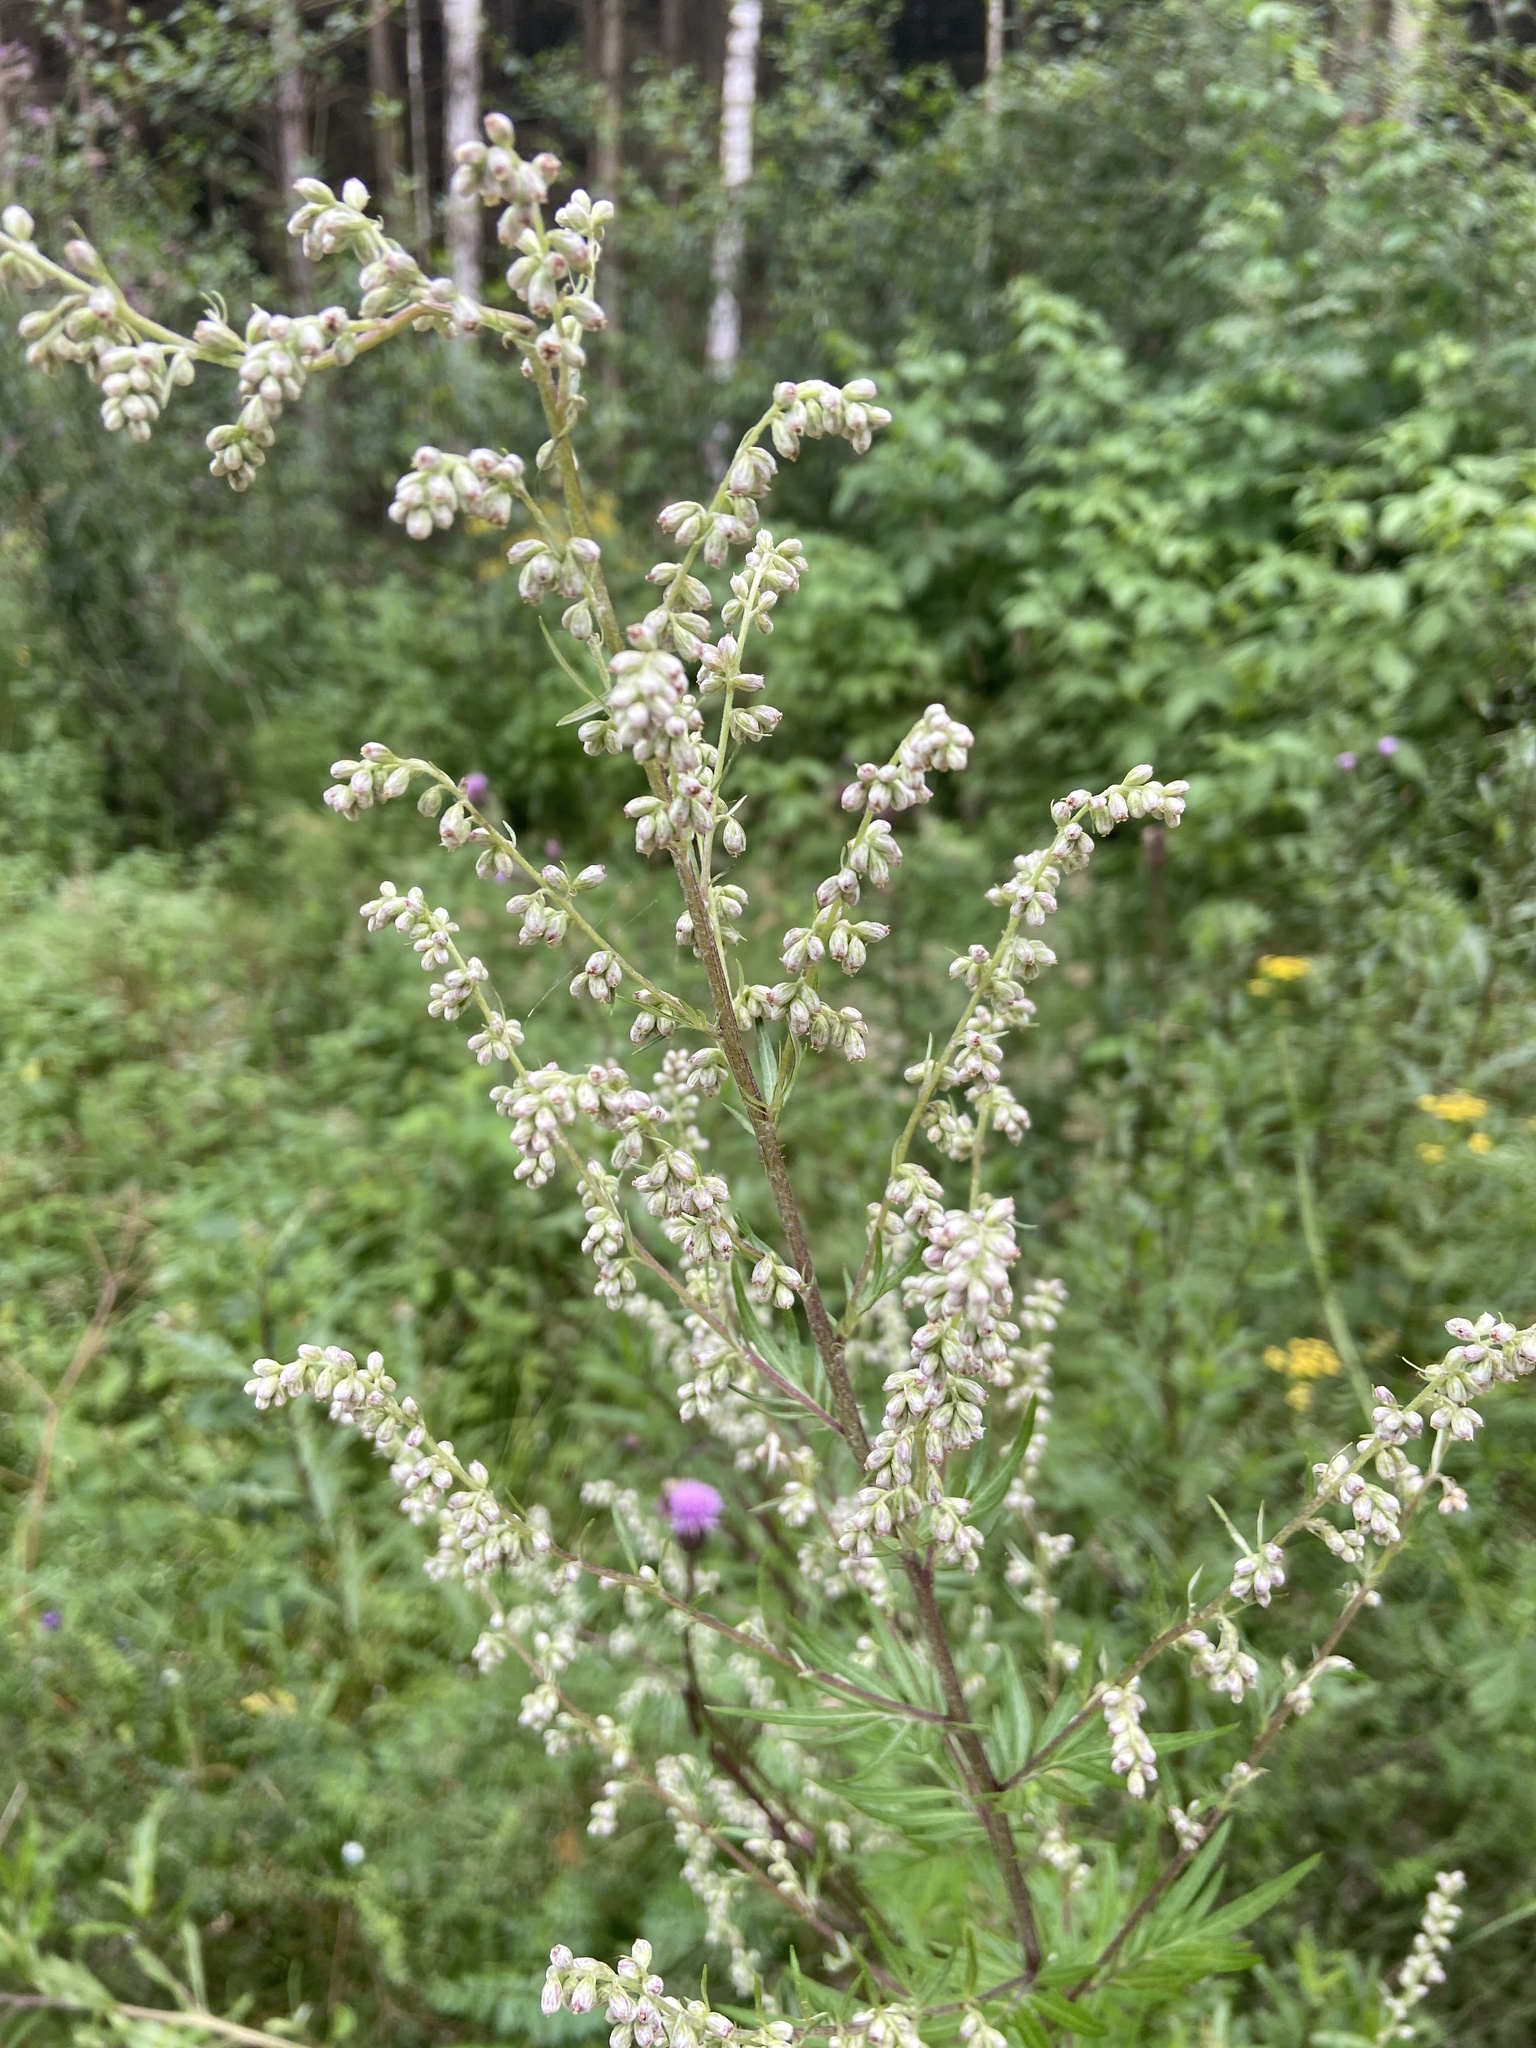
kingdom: Plantae
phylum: Tracheophyta
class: Magnoliopsida
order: Asterales
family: Asteraceae
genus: Artemisia
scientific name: Artemisia vulgaris
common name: Mugwort
